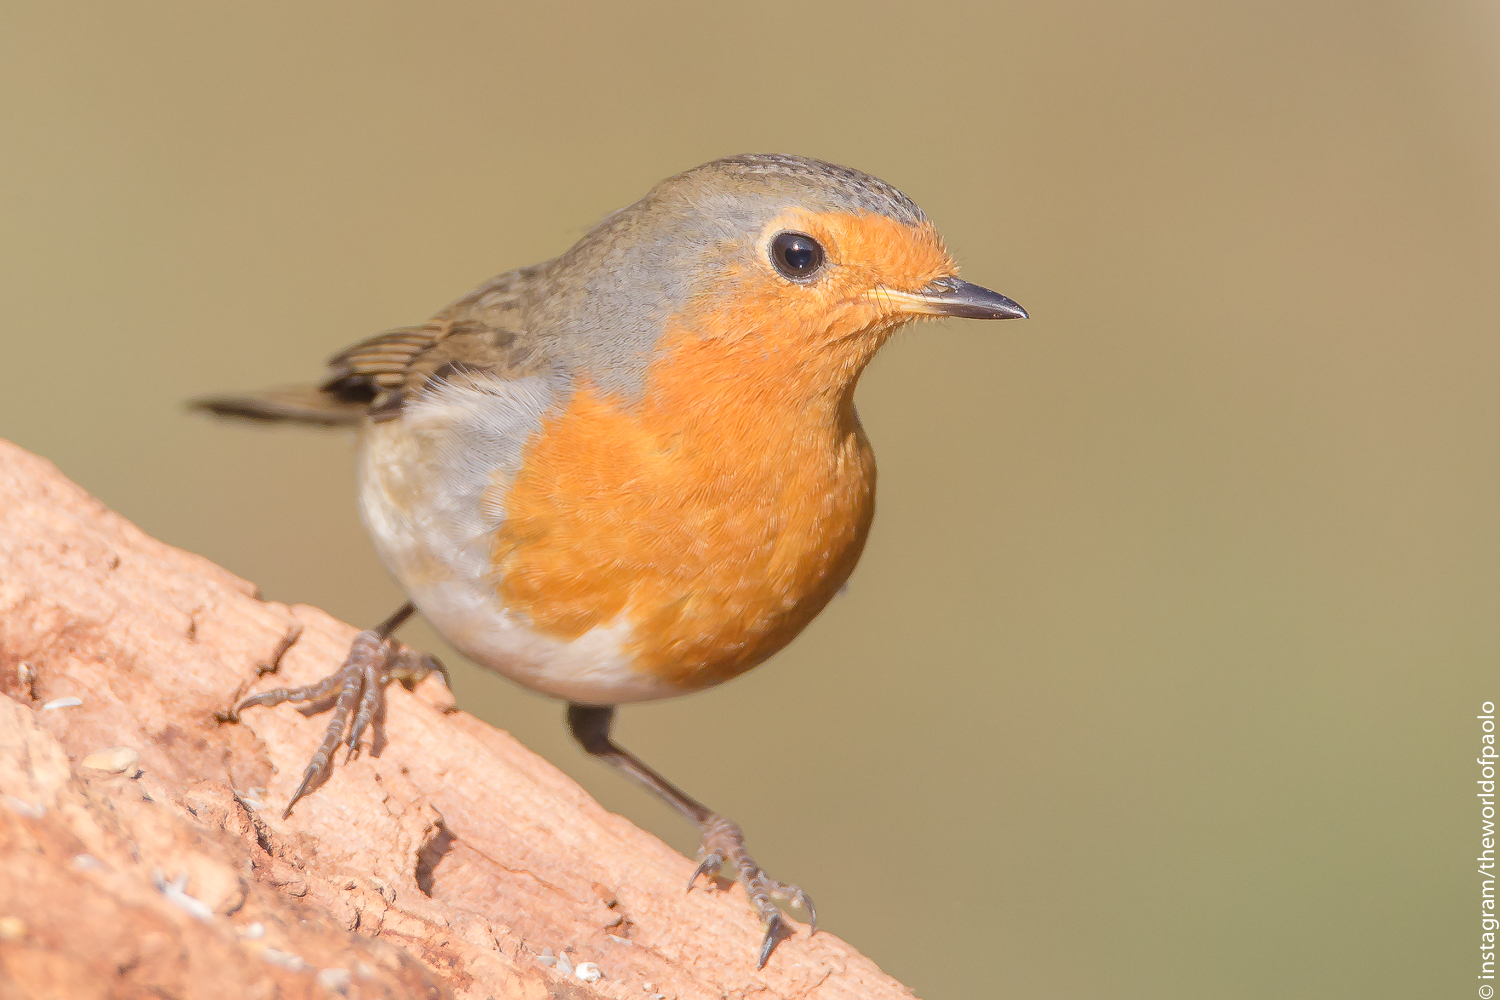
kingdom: Animalia
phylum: Chordata
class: Aves
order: Passeriformes
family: Muscicapidae
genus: Erithacus
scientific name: Erithacus rubecula
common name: European robin
